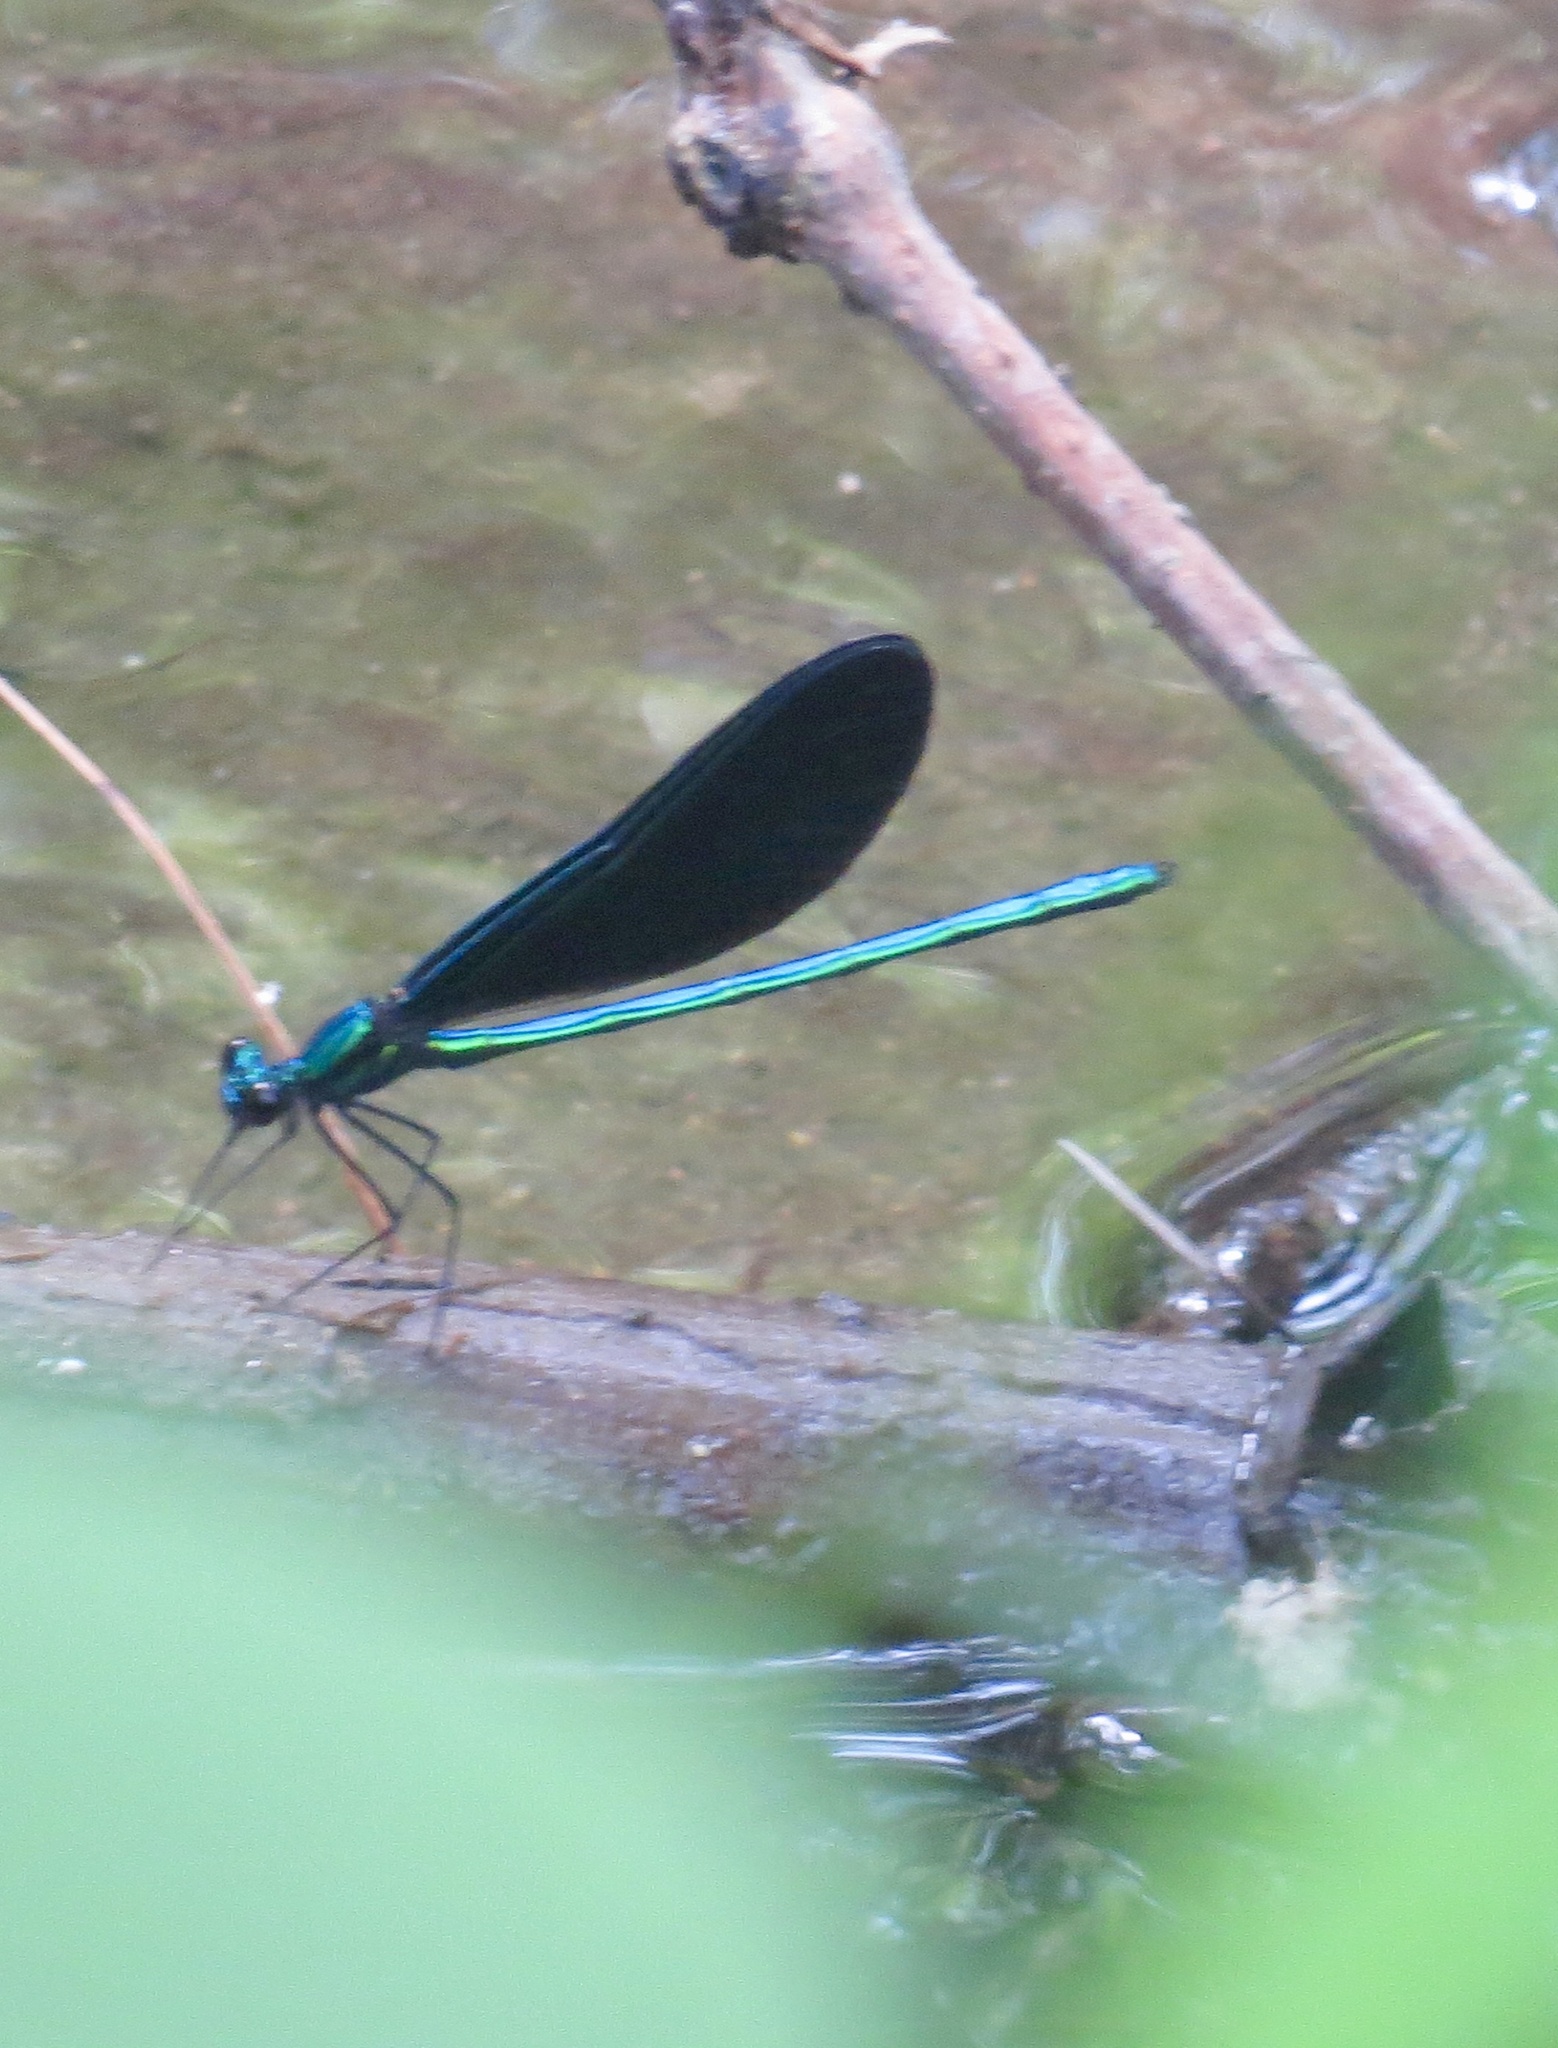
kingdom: Animalia
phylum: Arthropoda
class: Insecta
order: Odonata
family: Calopterygidae
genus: Calopteryx
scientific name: Calopteryx maculata
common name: Ebony jewelwing
